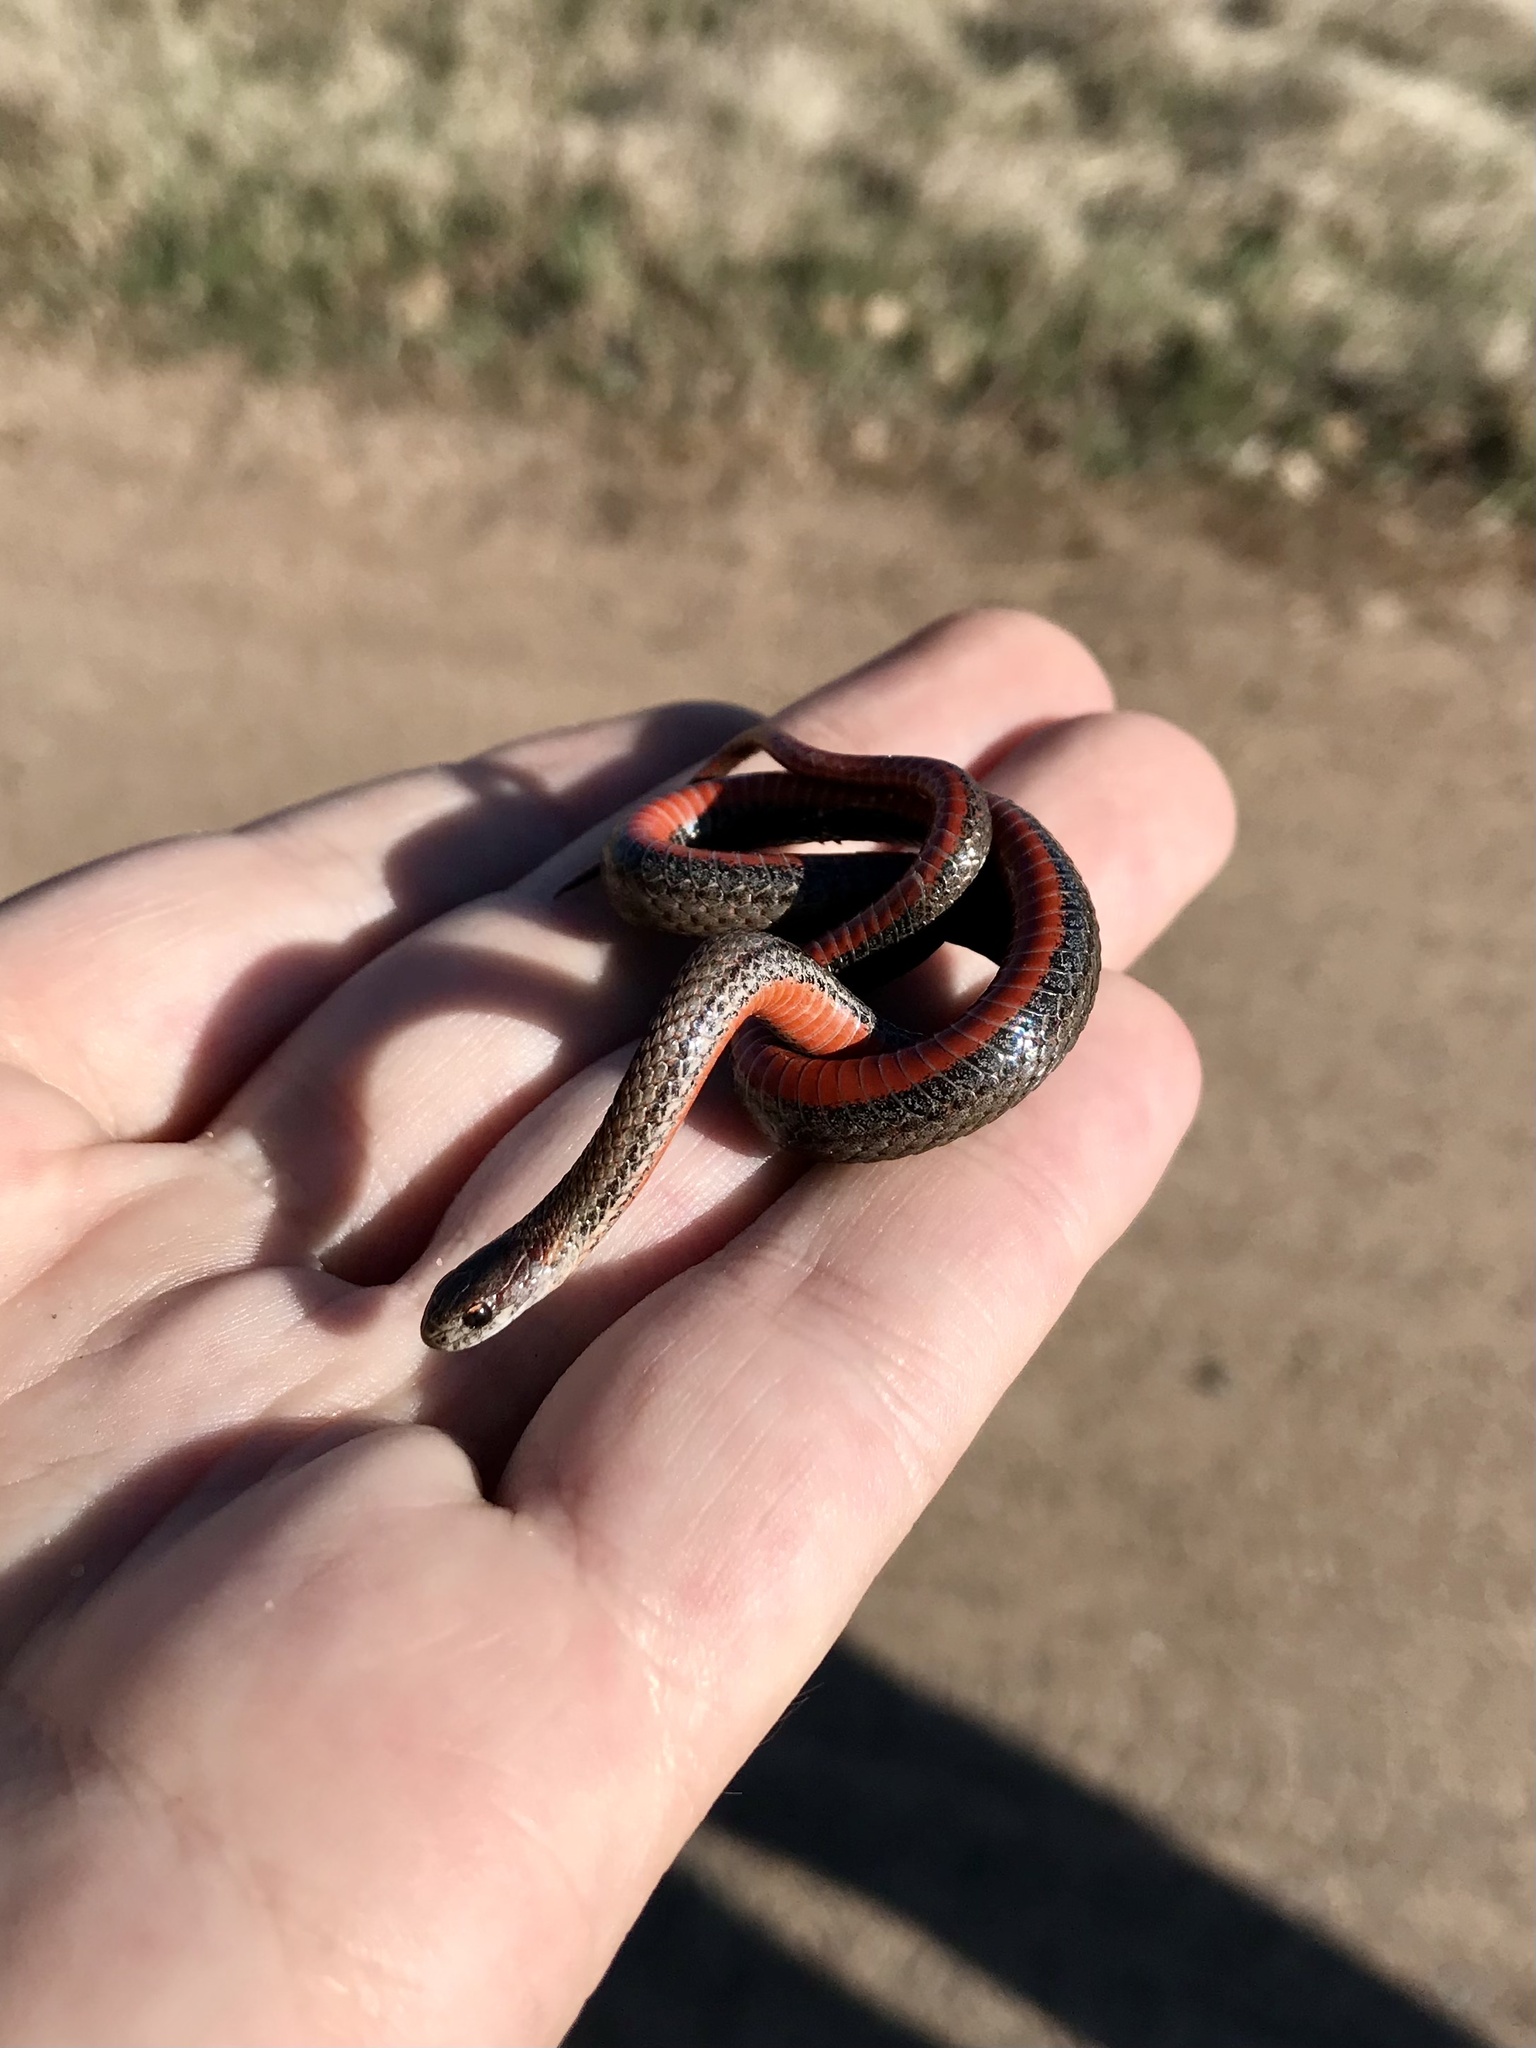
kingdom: Animalia
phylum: Chordata
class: Squamata
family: Colubridae
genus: Storeria
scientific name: Storeria occipitomaculata
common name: Redbelly snake
